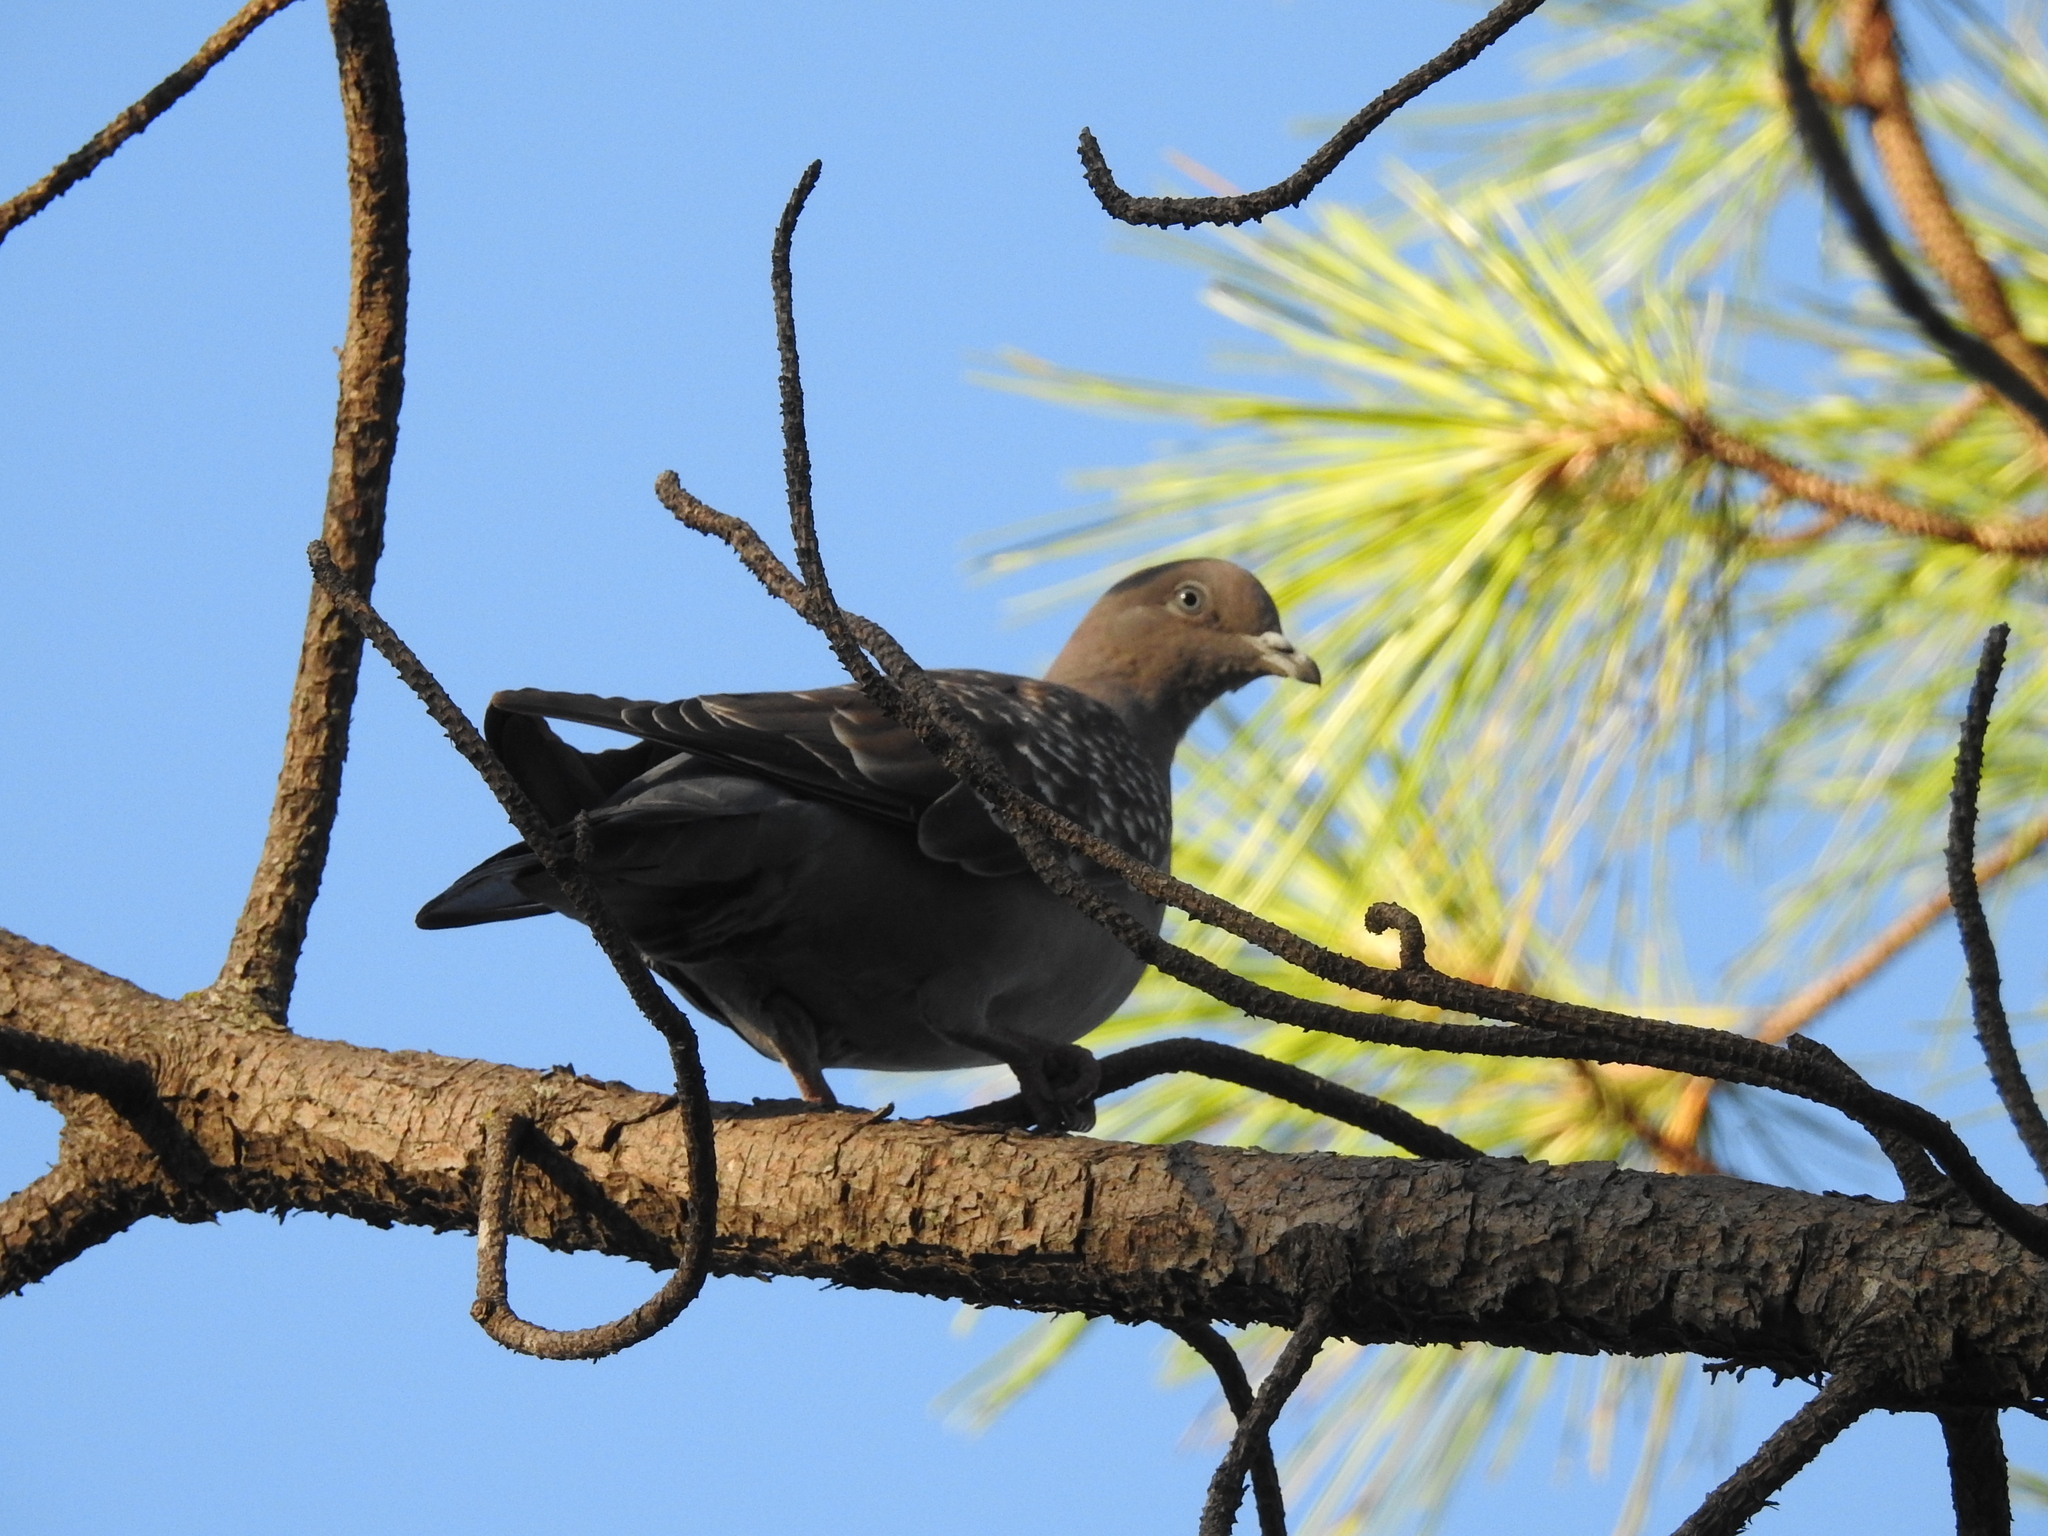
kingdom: Animalia
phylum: Chordata
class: Aves
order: Columbiformes
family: Columbidae
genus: Patagioenas
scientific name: Patagioenas maculosa
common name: Spot-winged pigeon
